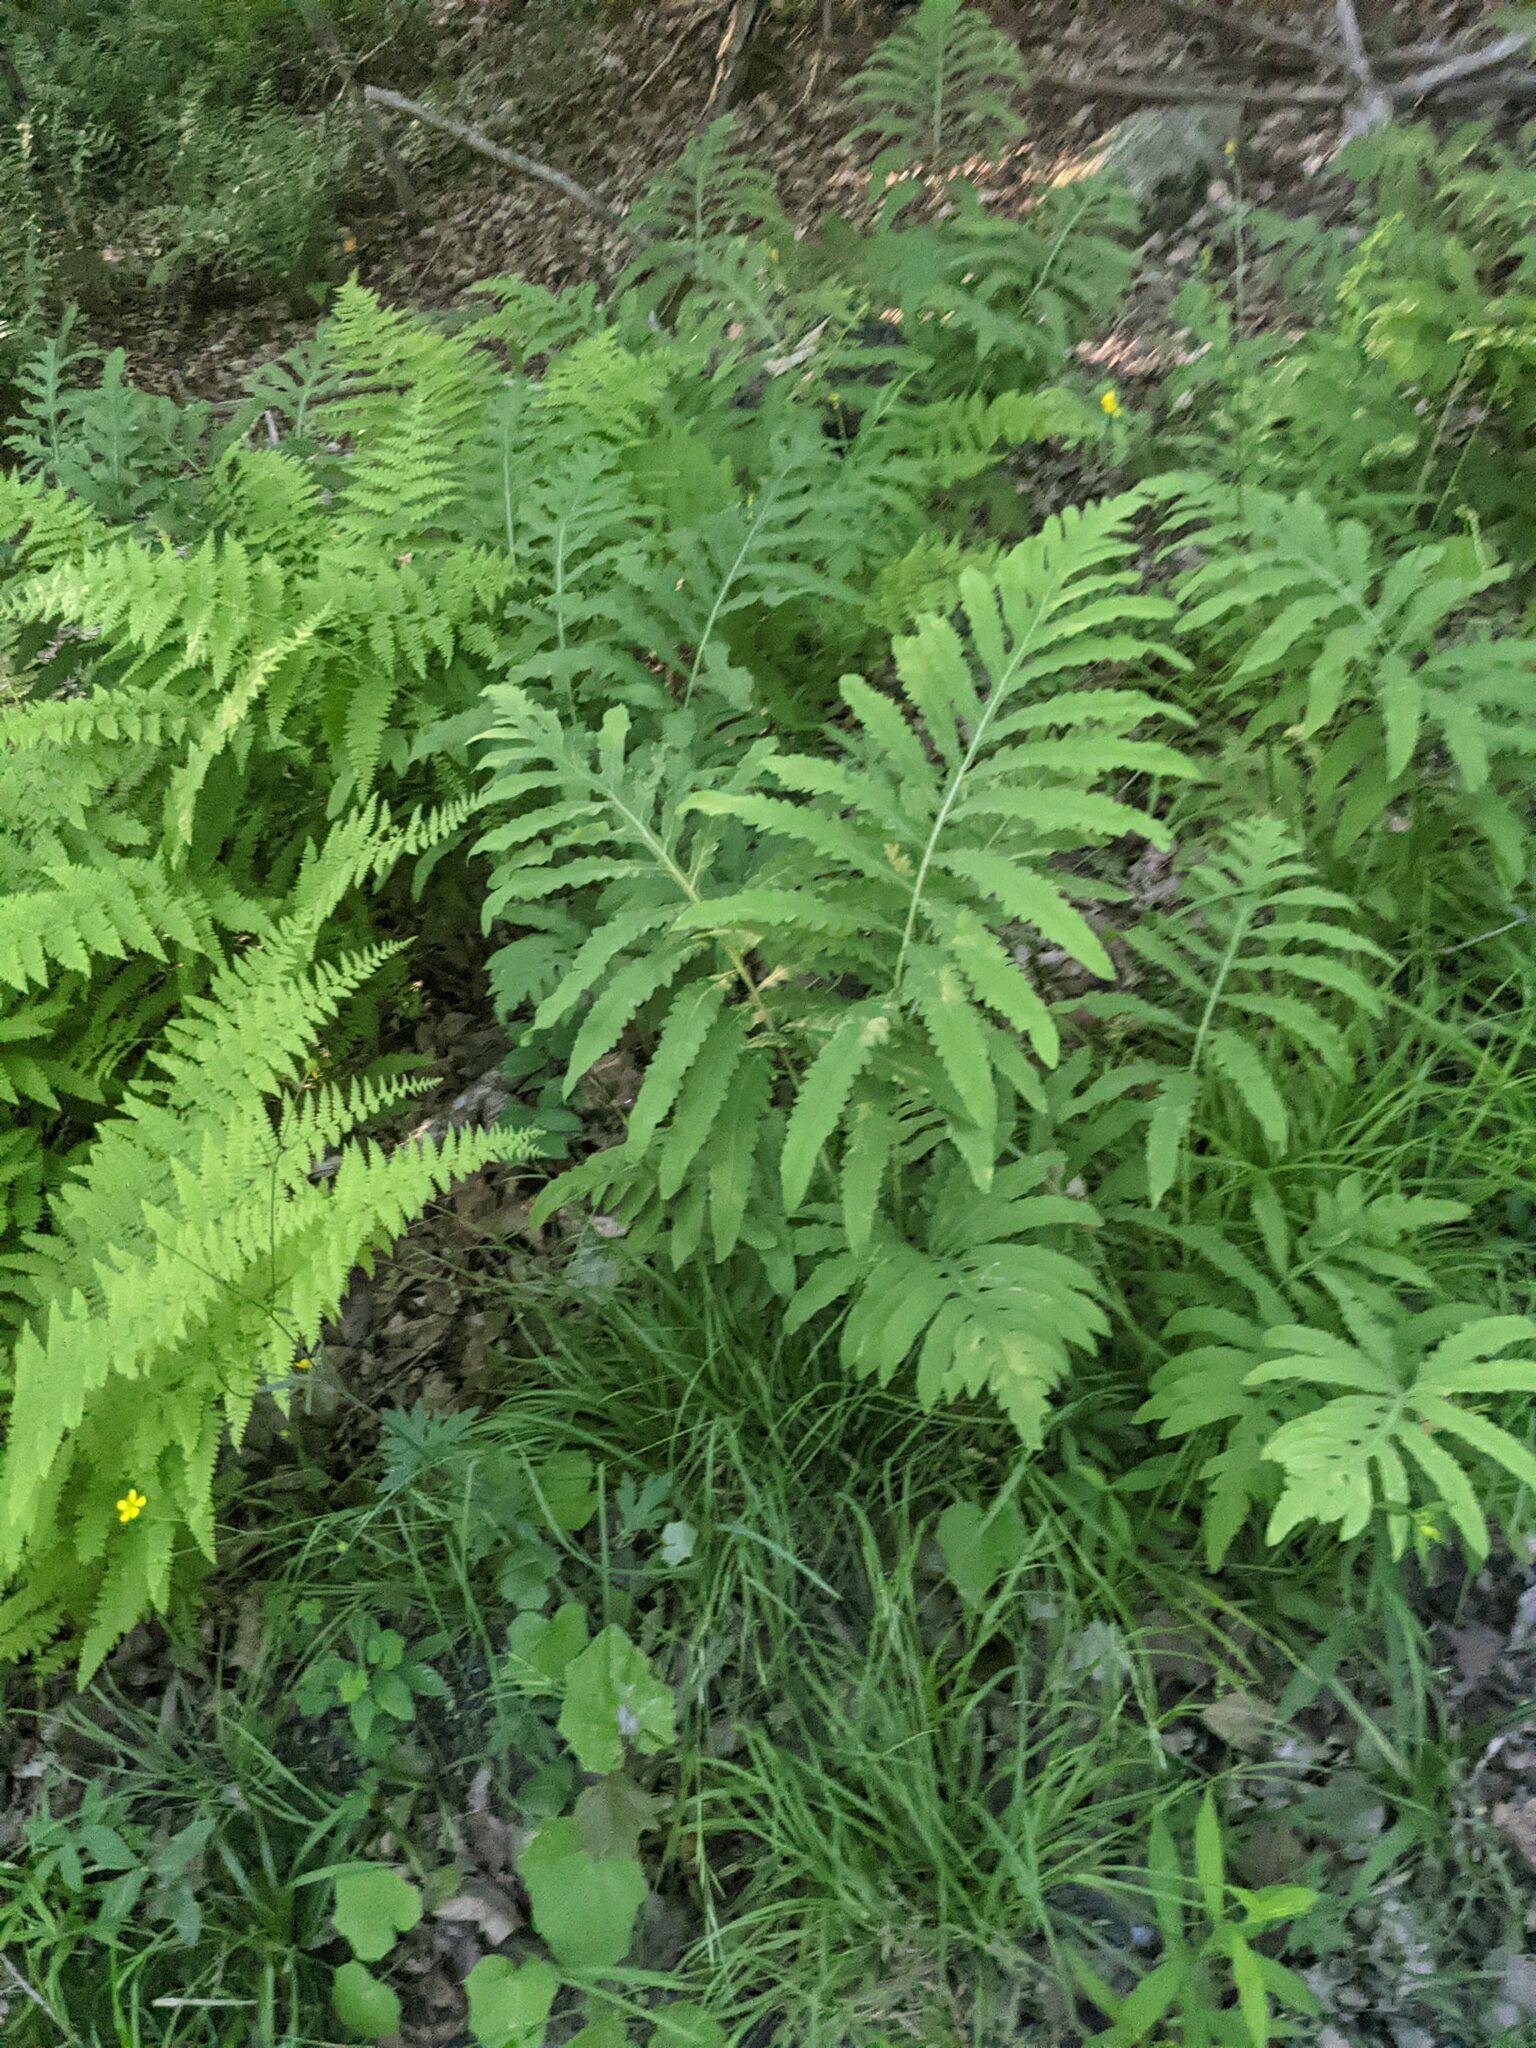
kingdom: Plantae
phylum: Tracheophyta
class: Polypodiopsida
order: Polypodiales
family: Onocleaceae
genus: Onoclea
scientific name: Onoclea sensibilis
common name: Sensitive fern
